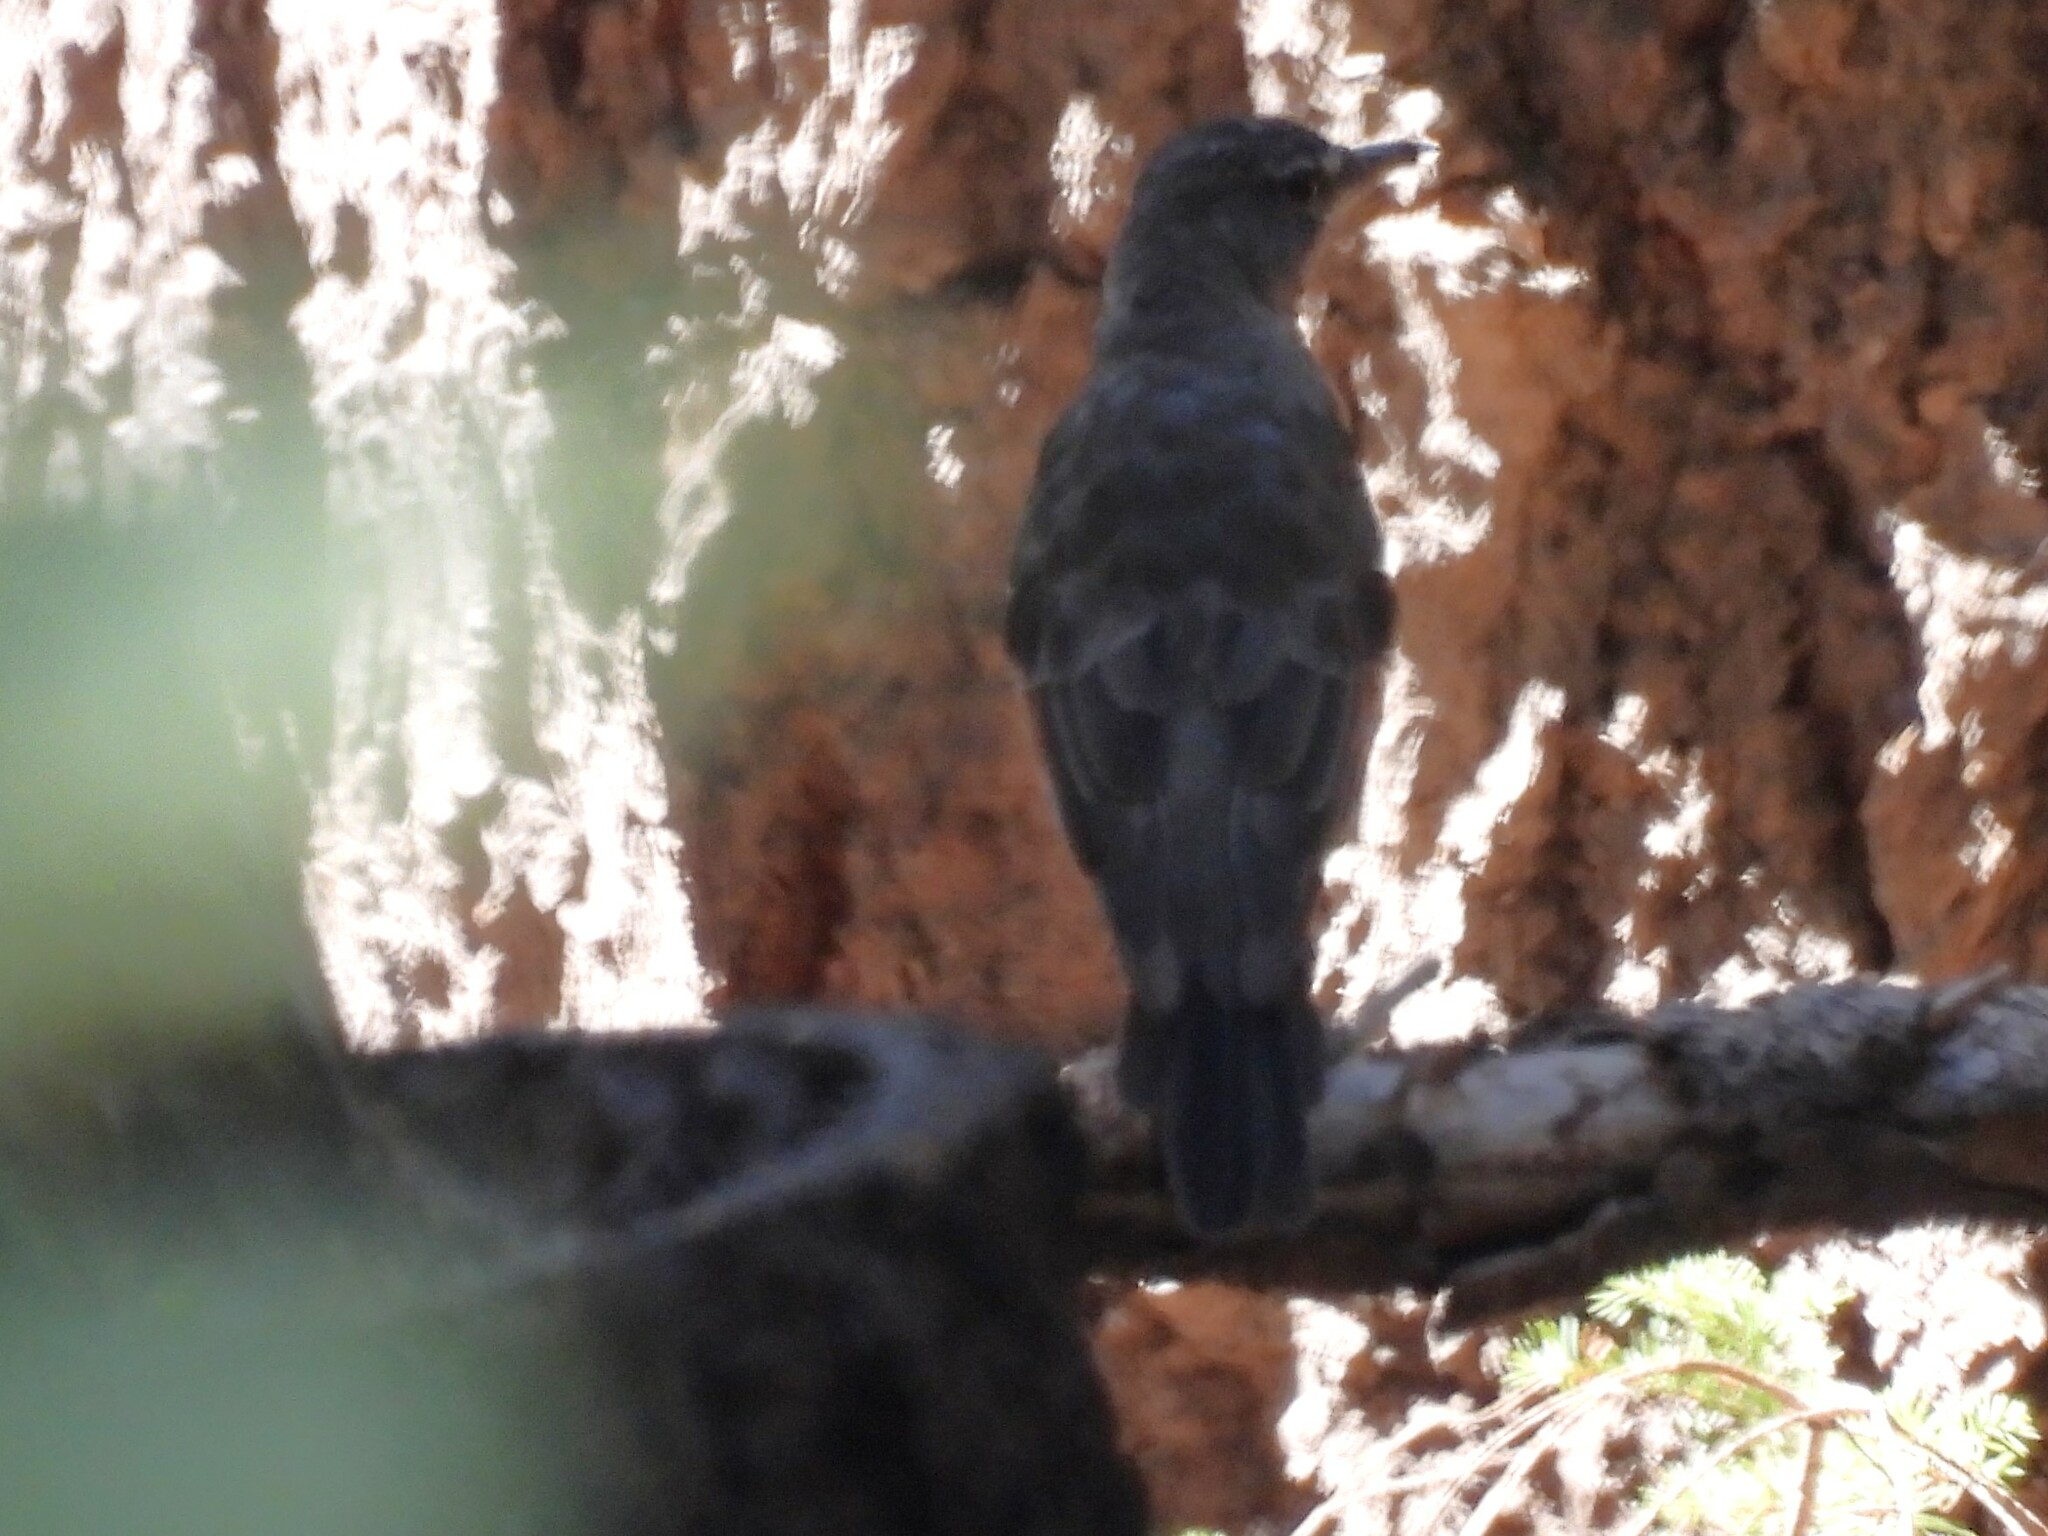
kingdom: Animalia
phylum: Chordata
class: Aves
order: Passeriformes
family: Turdidae
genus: Turdus
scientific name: Turdus migratorius
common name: American robin
